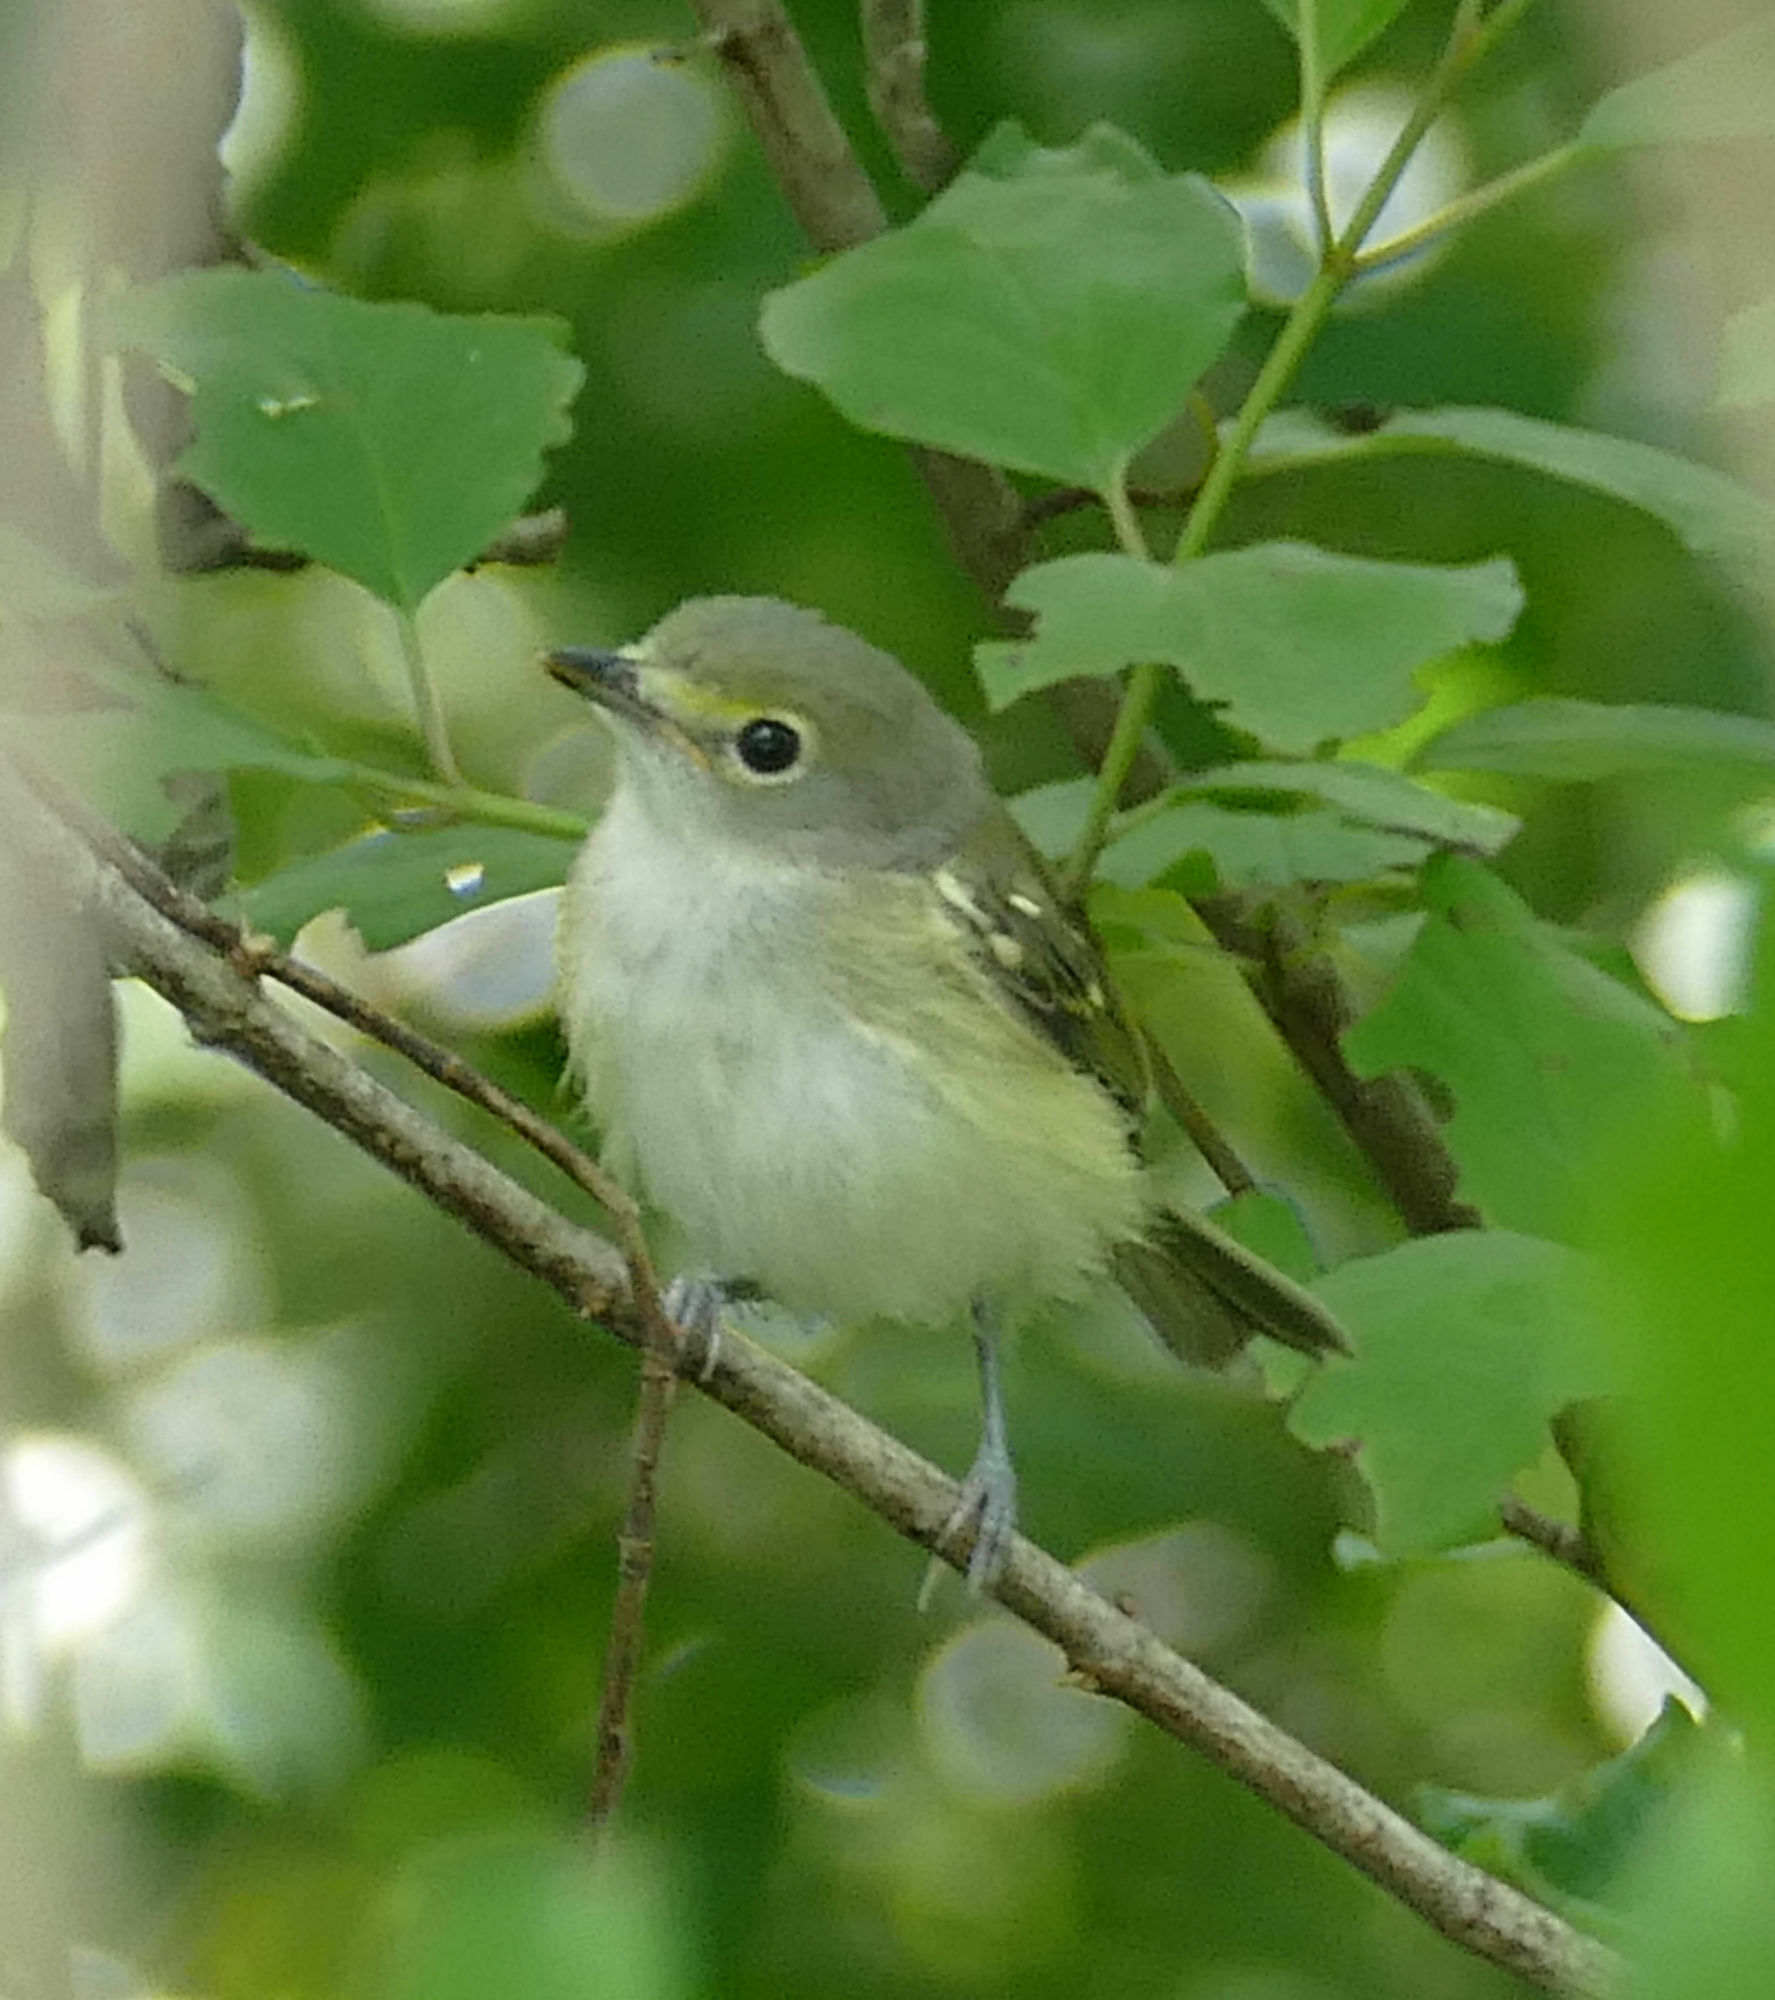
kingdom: Animalia
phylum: Chordata
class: Aves
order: Passeriformes
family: Vireonidae
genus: Vireo
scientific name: Vireo griseus
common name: White-eyed vireo
